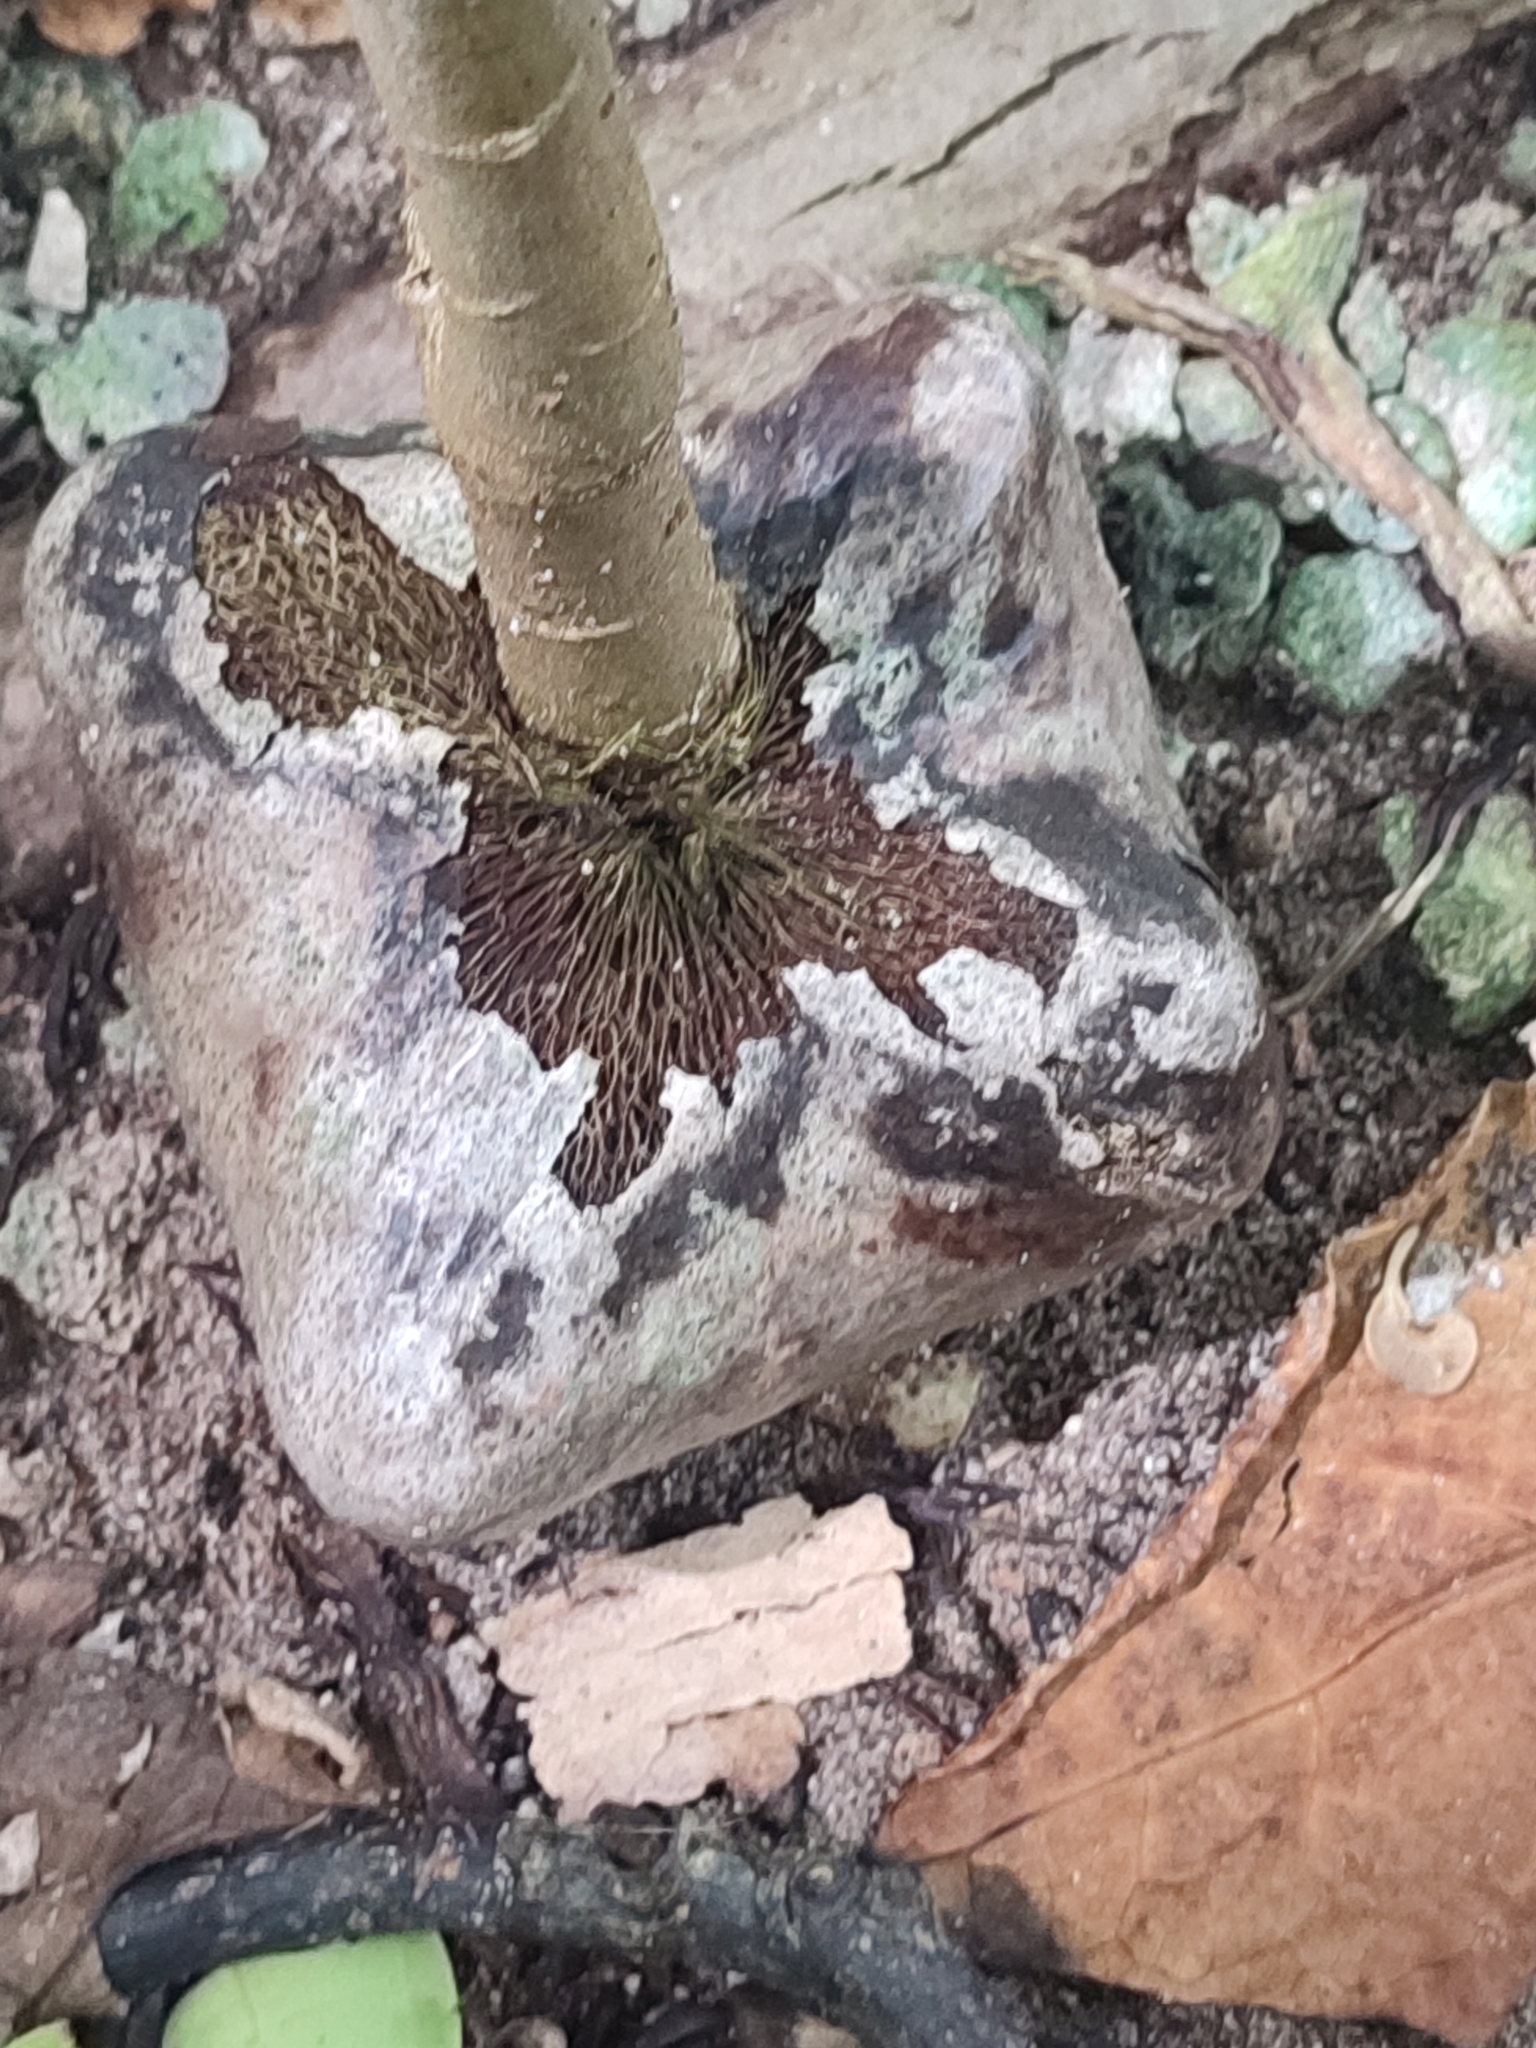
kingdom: Plantae
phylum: Tracheophyta
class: Magnoliopsida
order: Ericales
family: Lecythidaceae
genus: Barringtonia
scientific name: Barringtonia asiatica
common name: Mango-pine
